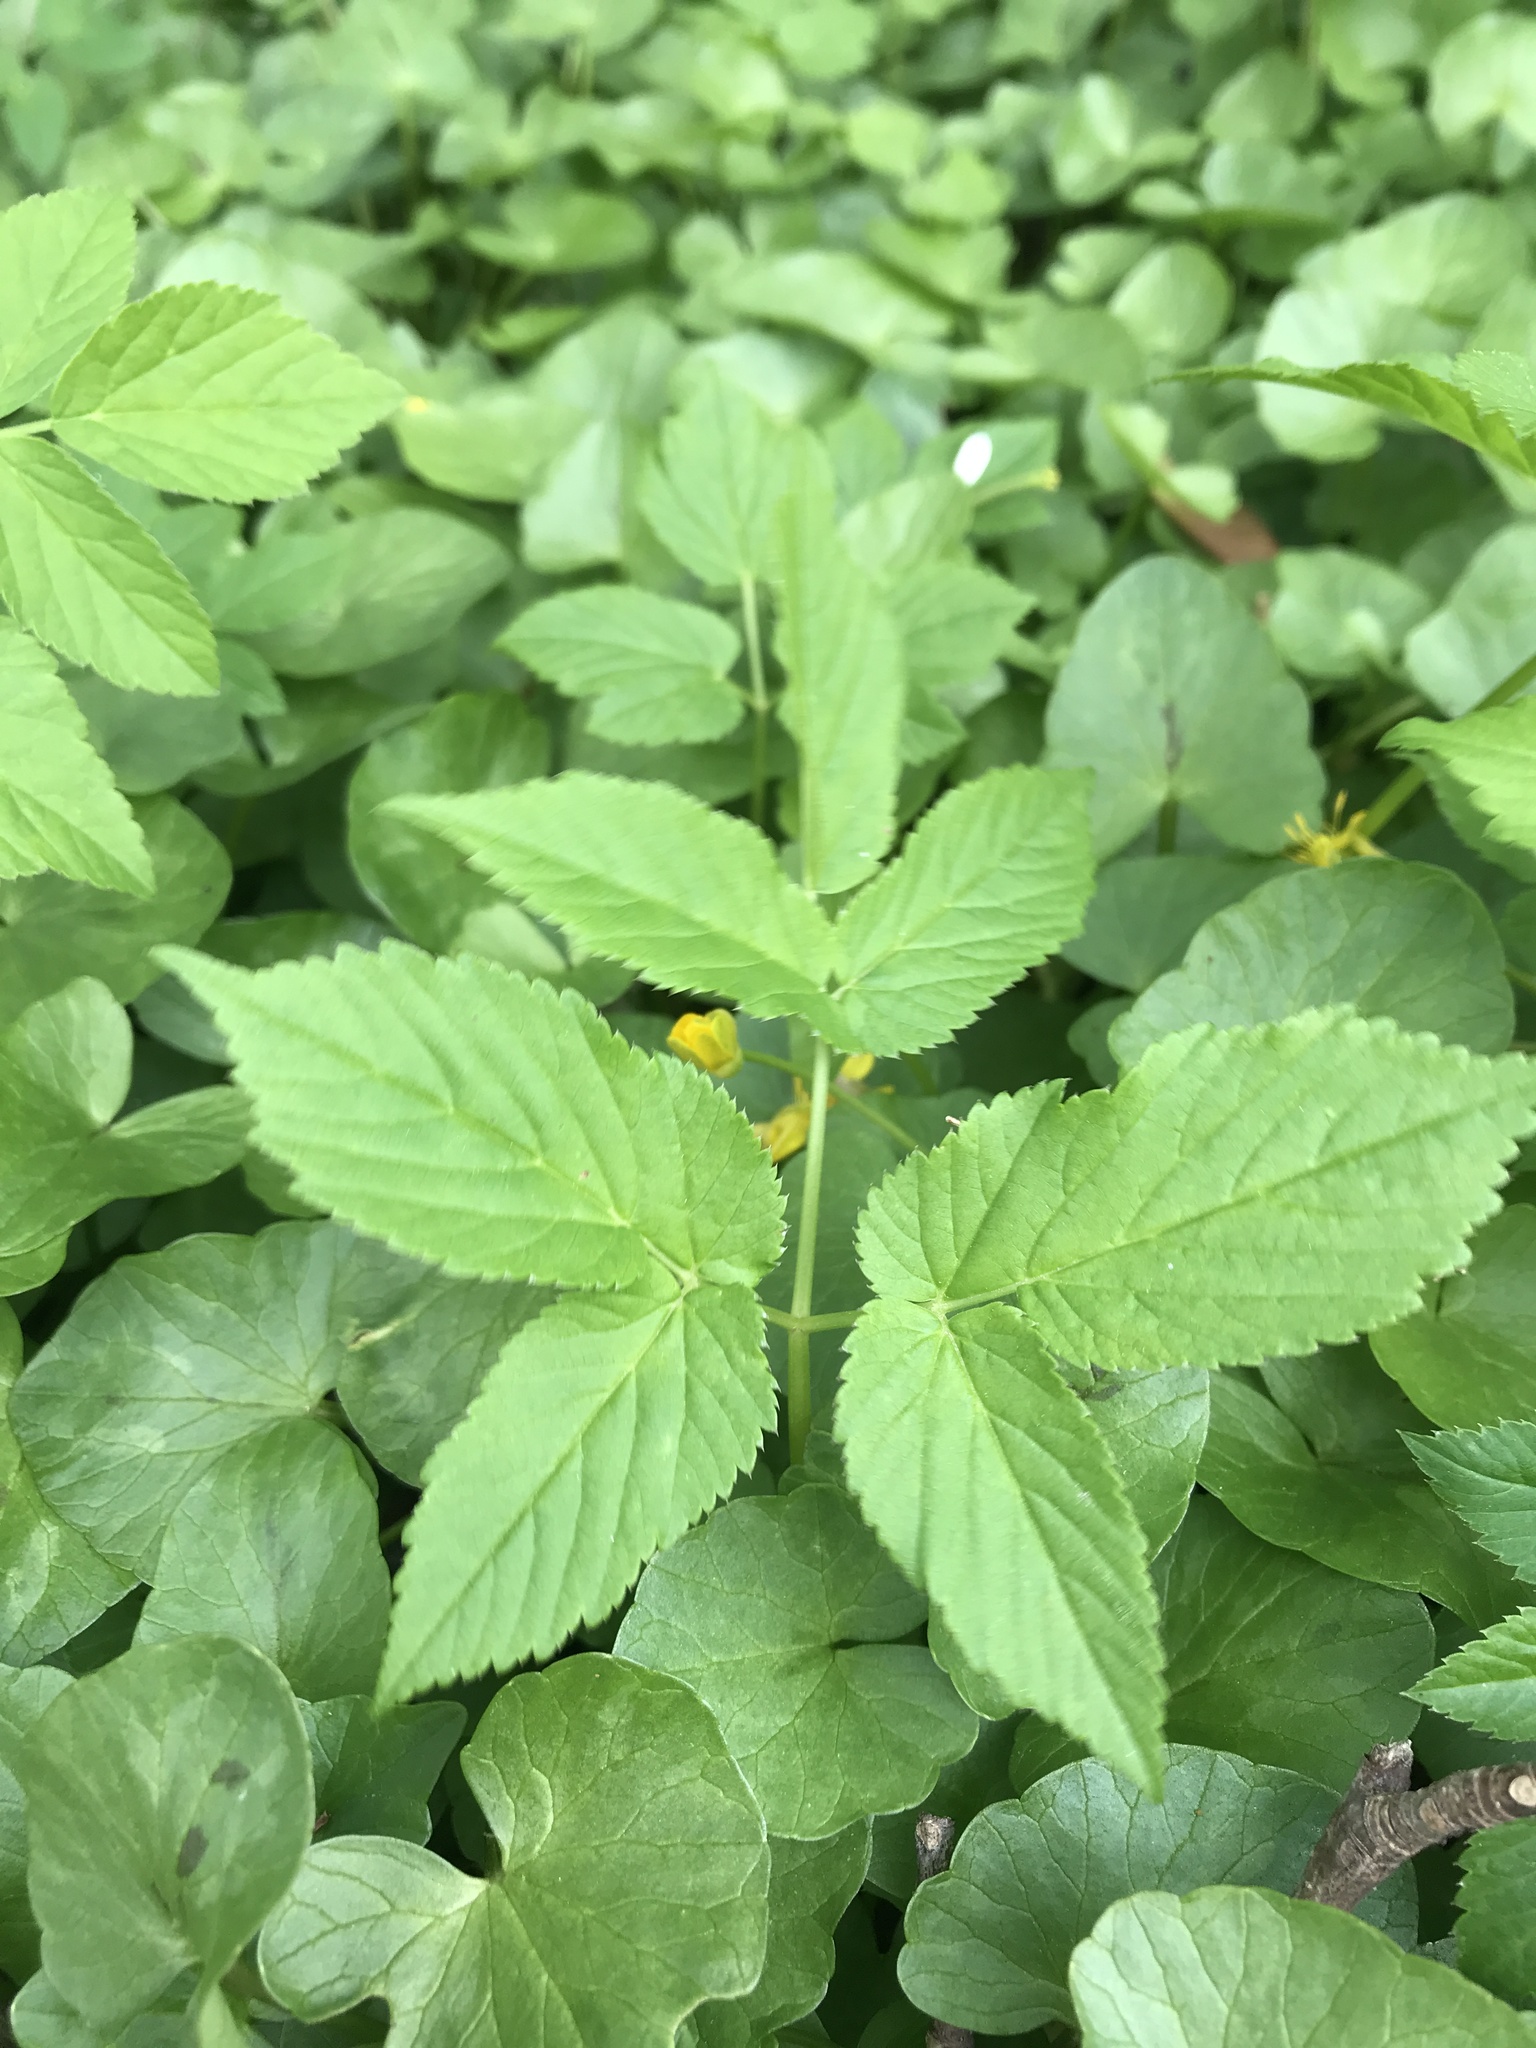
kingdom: Plantae
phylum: Tracheophyta
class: Magnoliopsida
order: Apiales
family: Apiaceae
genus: Aegopodium
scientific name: Aegopodium podagraria
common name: Ground-elder
